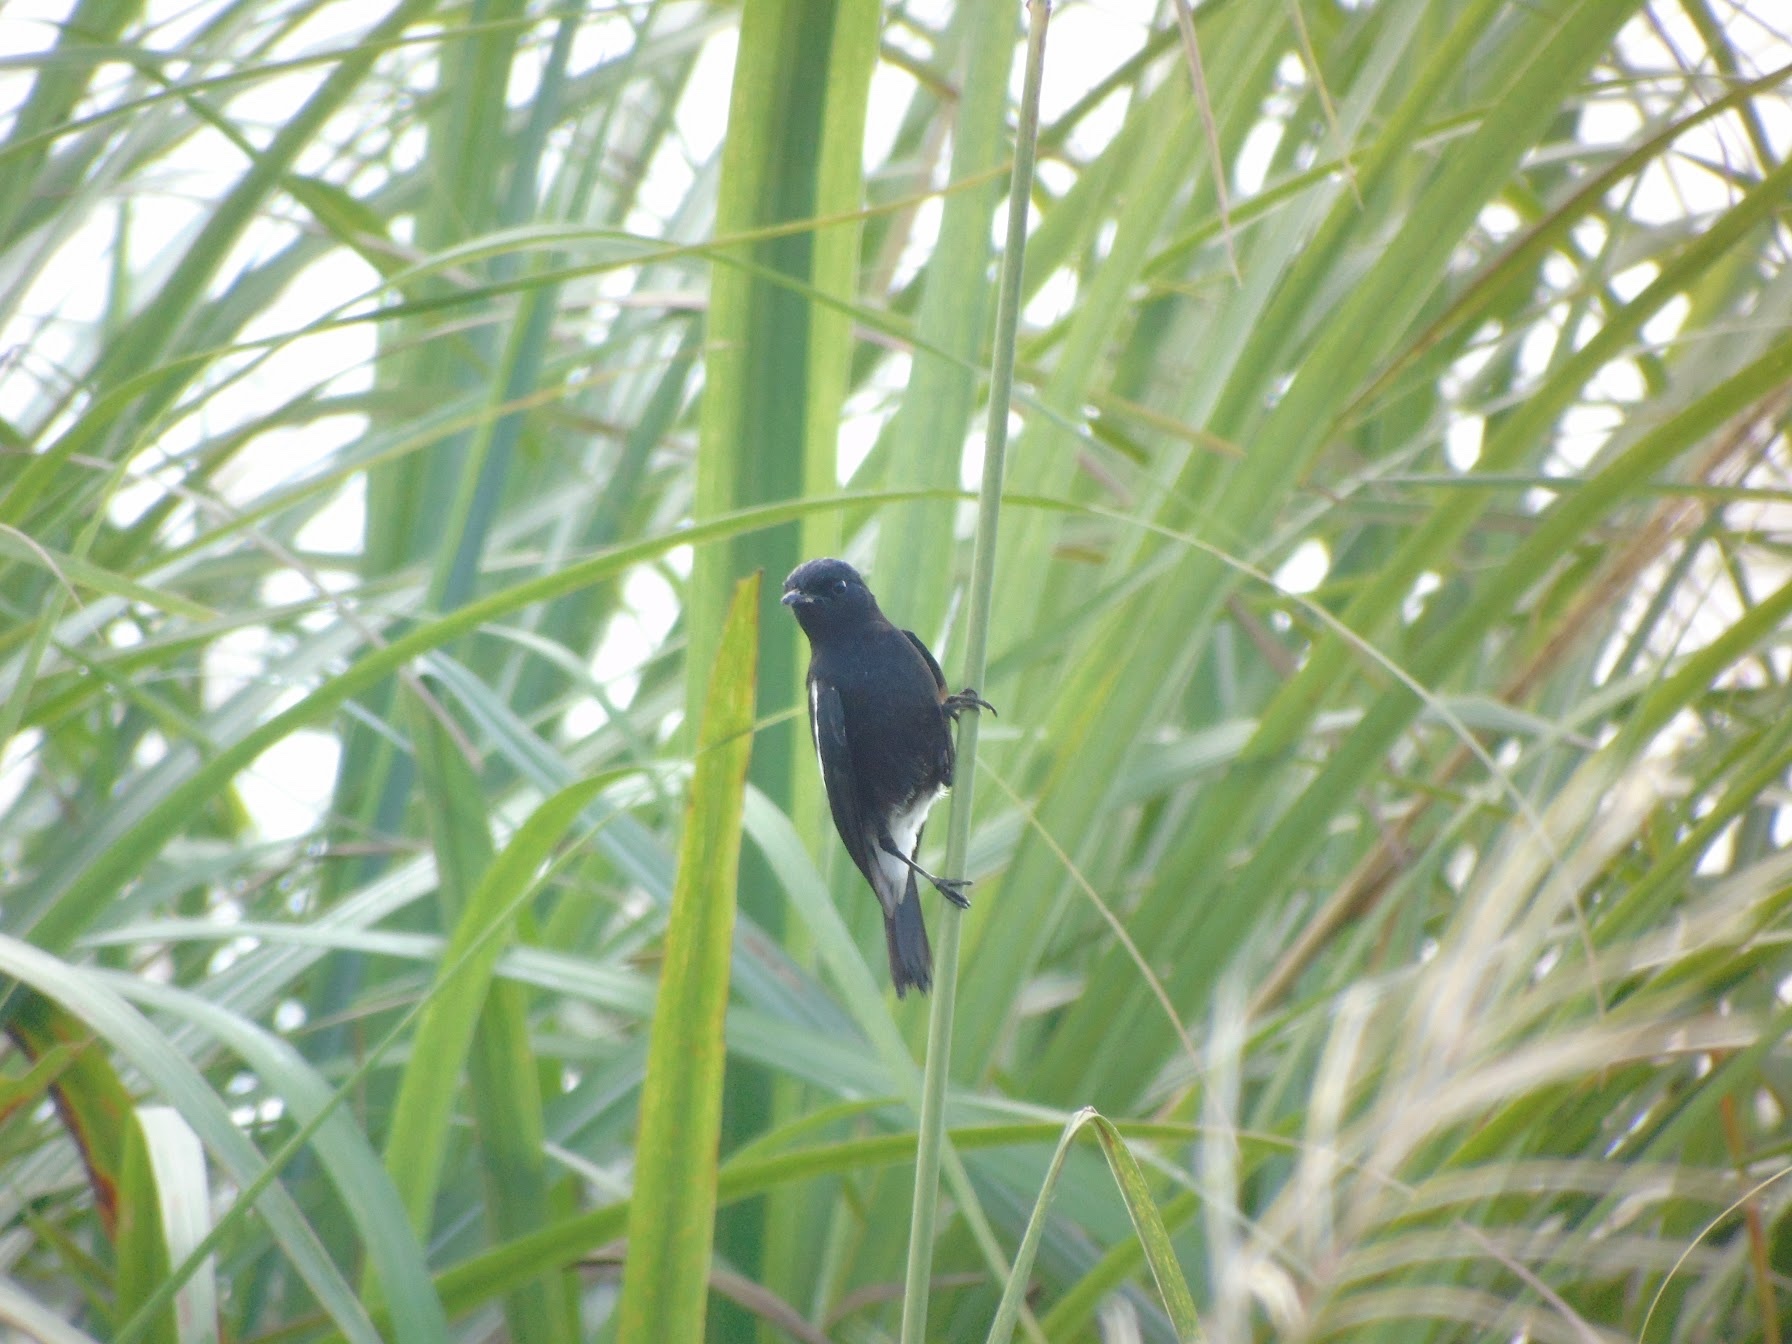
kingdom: Animalia
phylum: Chordata
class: Aves
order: Passeriformes
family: Muscicapidae
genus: Saxicola
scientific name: Saxicola caprata
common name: Pied bush chat
